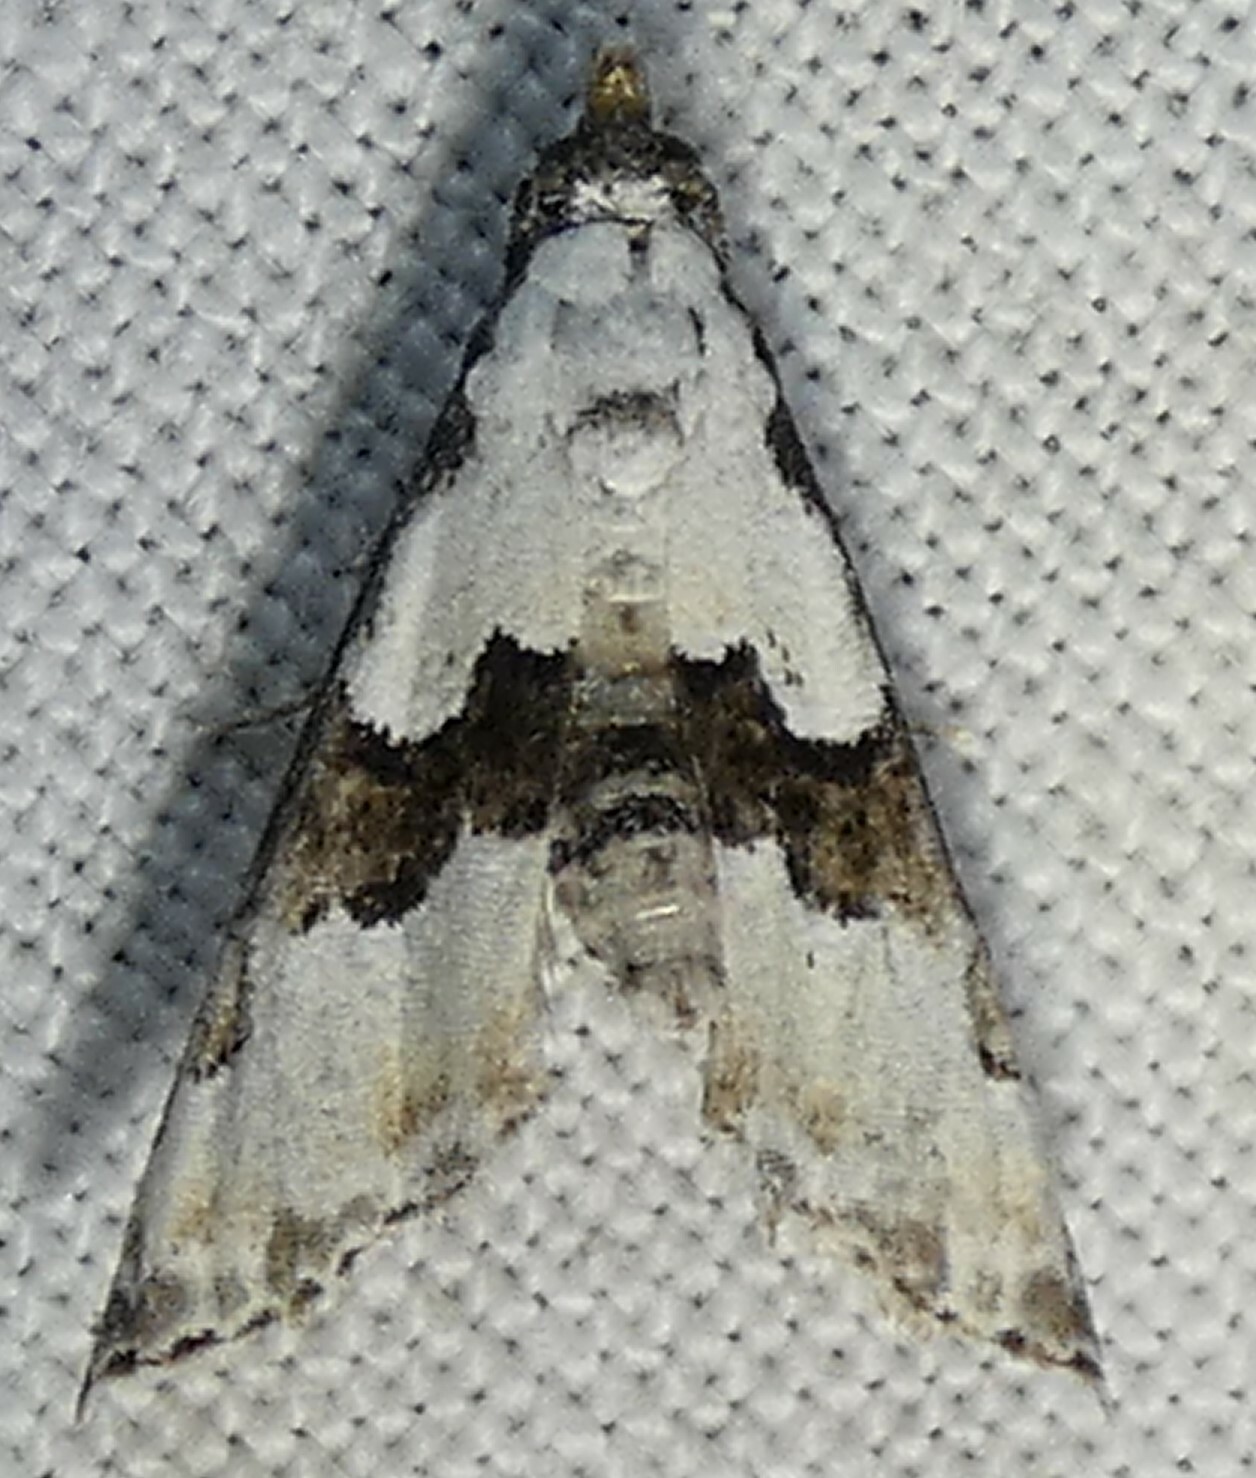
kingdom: Animalia
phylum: Arthropoda
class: Insecta
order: Lepidoptera
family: Noctuidae
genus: Nigetia
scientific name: Nigetia formosalis
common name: Thin-winged owlet
